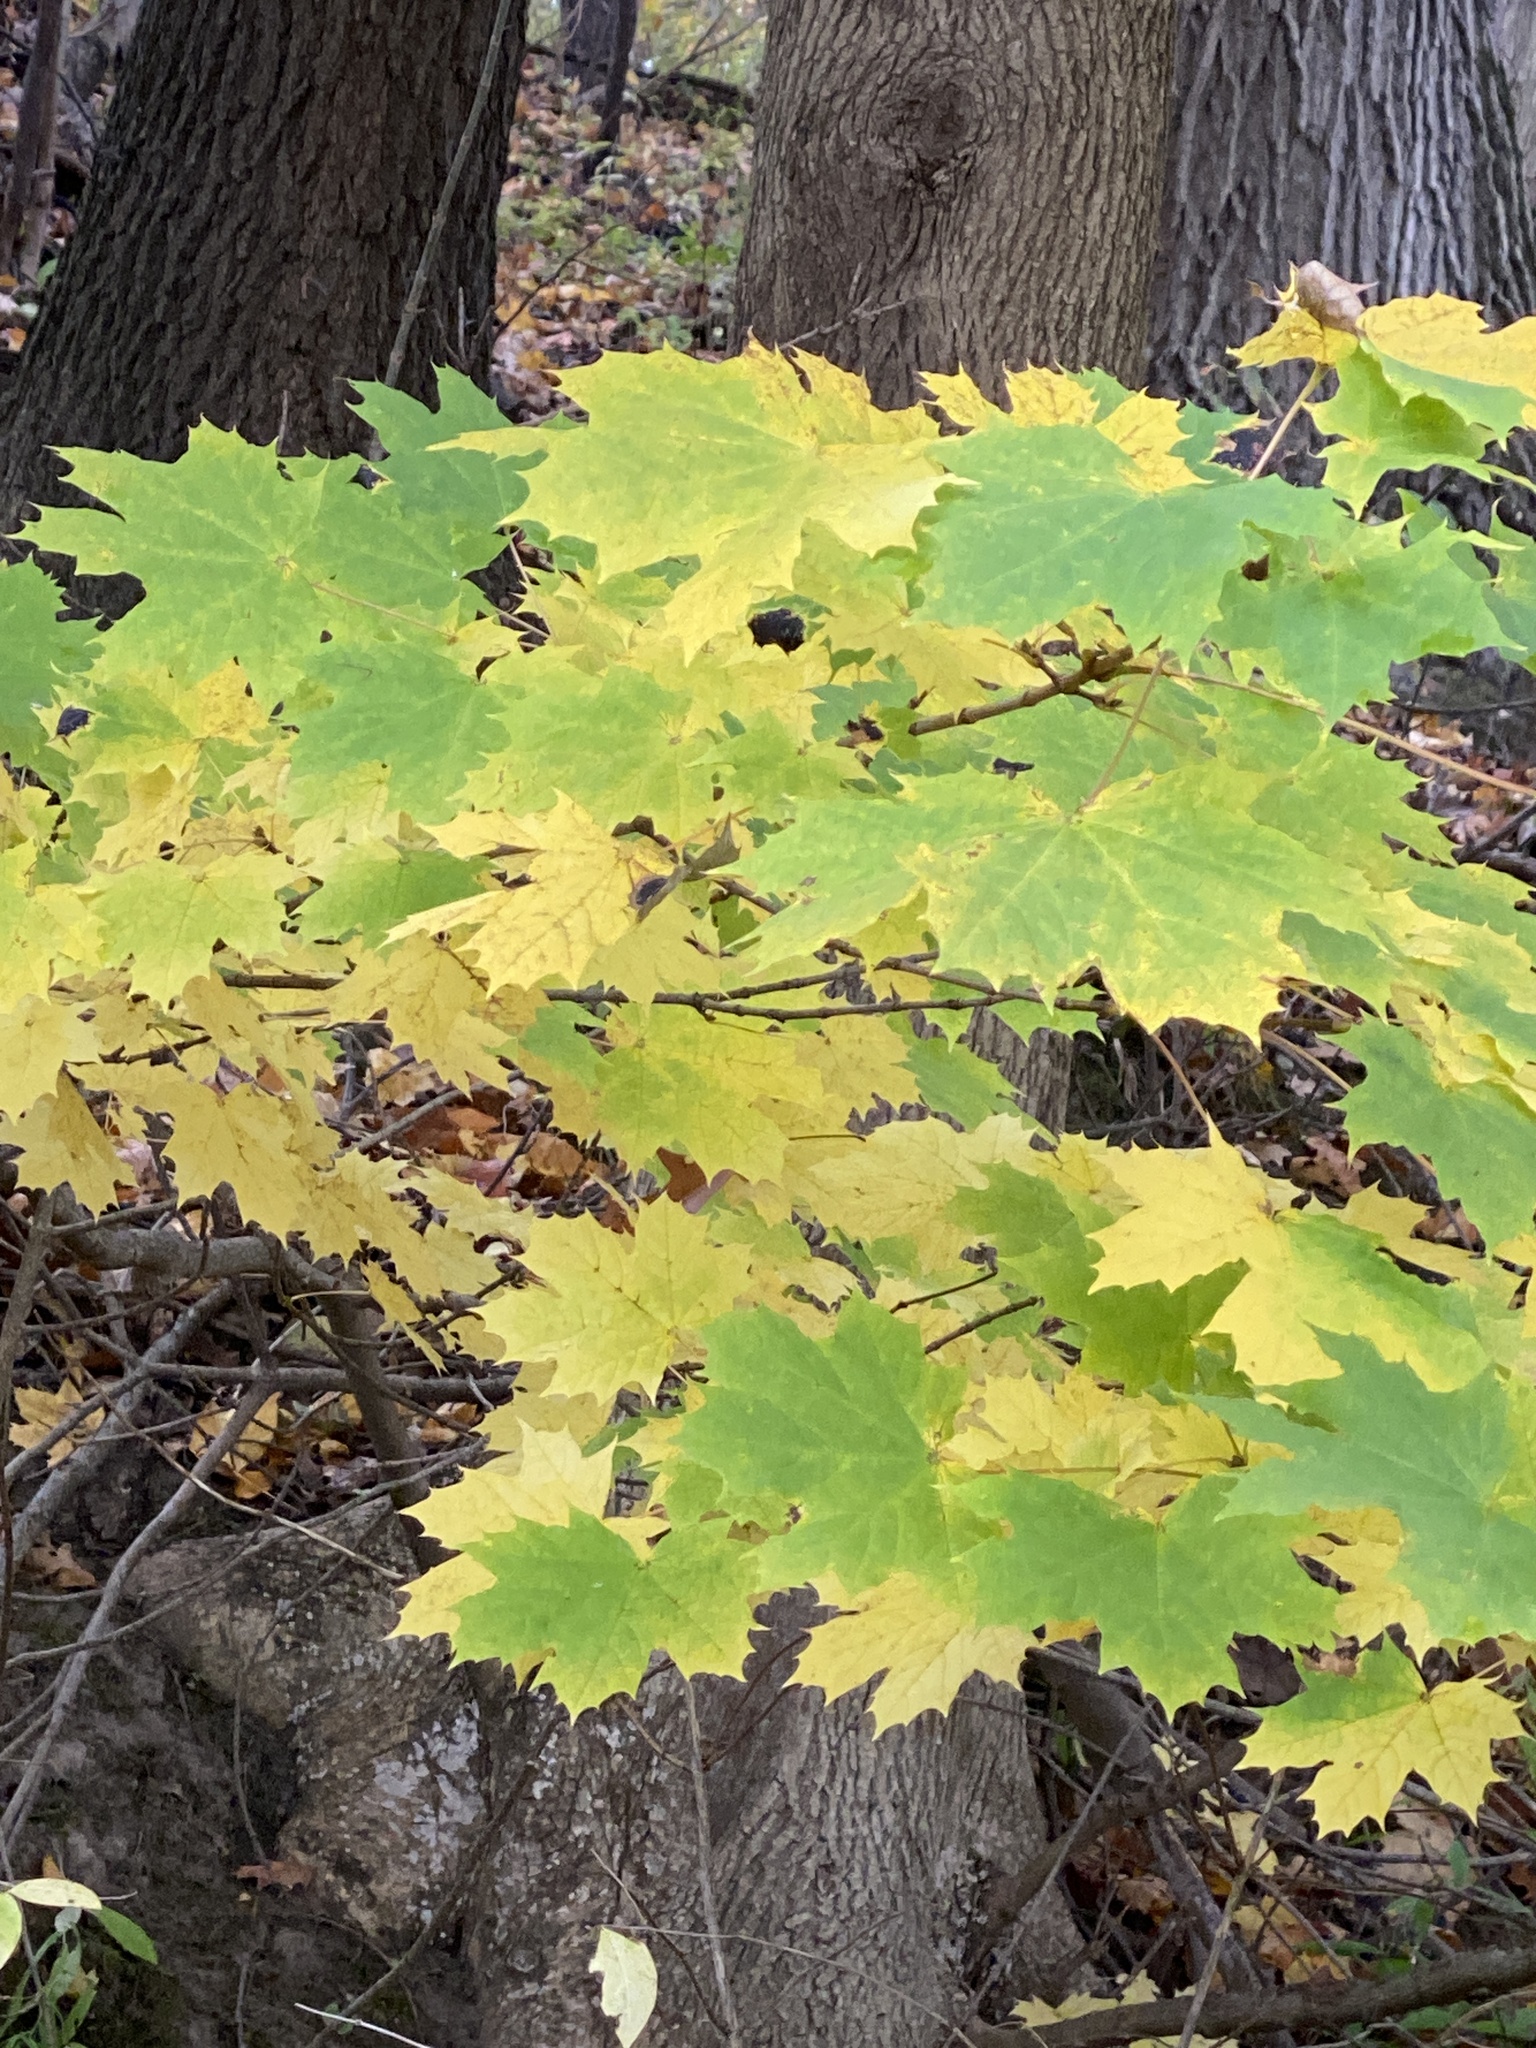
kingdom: Plantae
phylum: Tracheophyta
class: Magnoliopsida
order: Sapindales
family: Sapindaceae
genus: Acer
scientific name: Acer platanoides
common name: Norway maple
